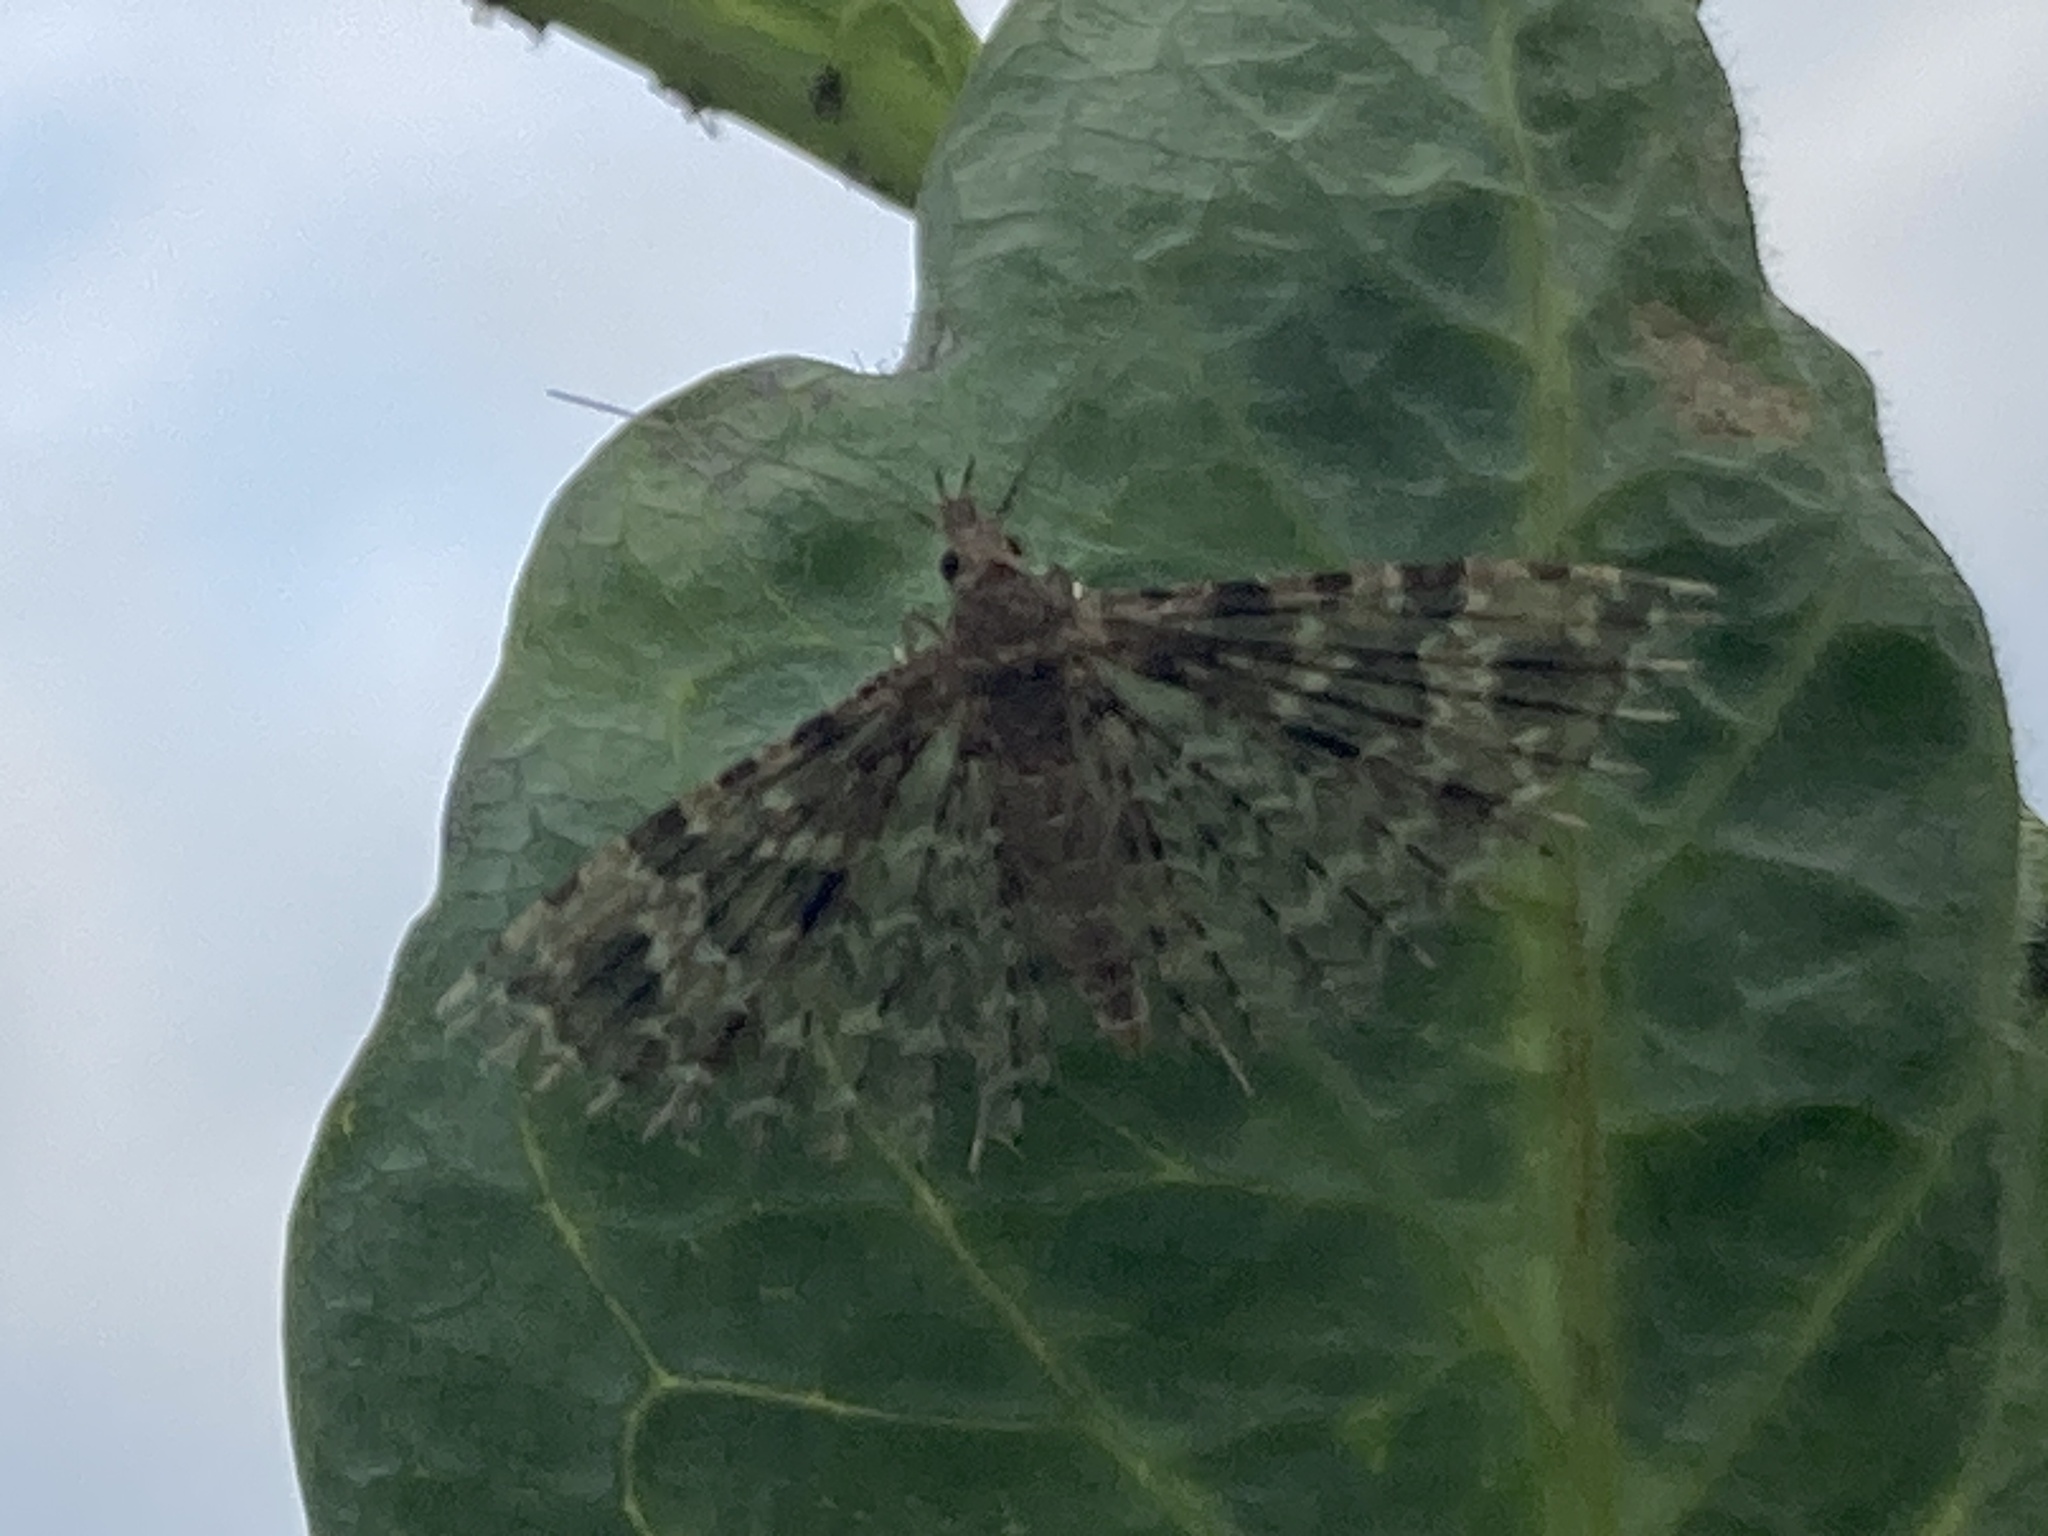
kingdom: Animalia
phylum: Arthropoda
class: Insecta
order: Lepidoptera
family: Alucitidae
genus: Alucita
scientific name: Alucita hexadactyla
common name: Twenty-plume moth
